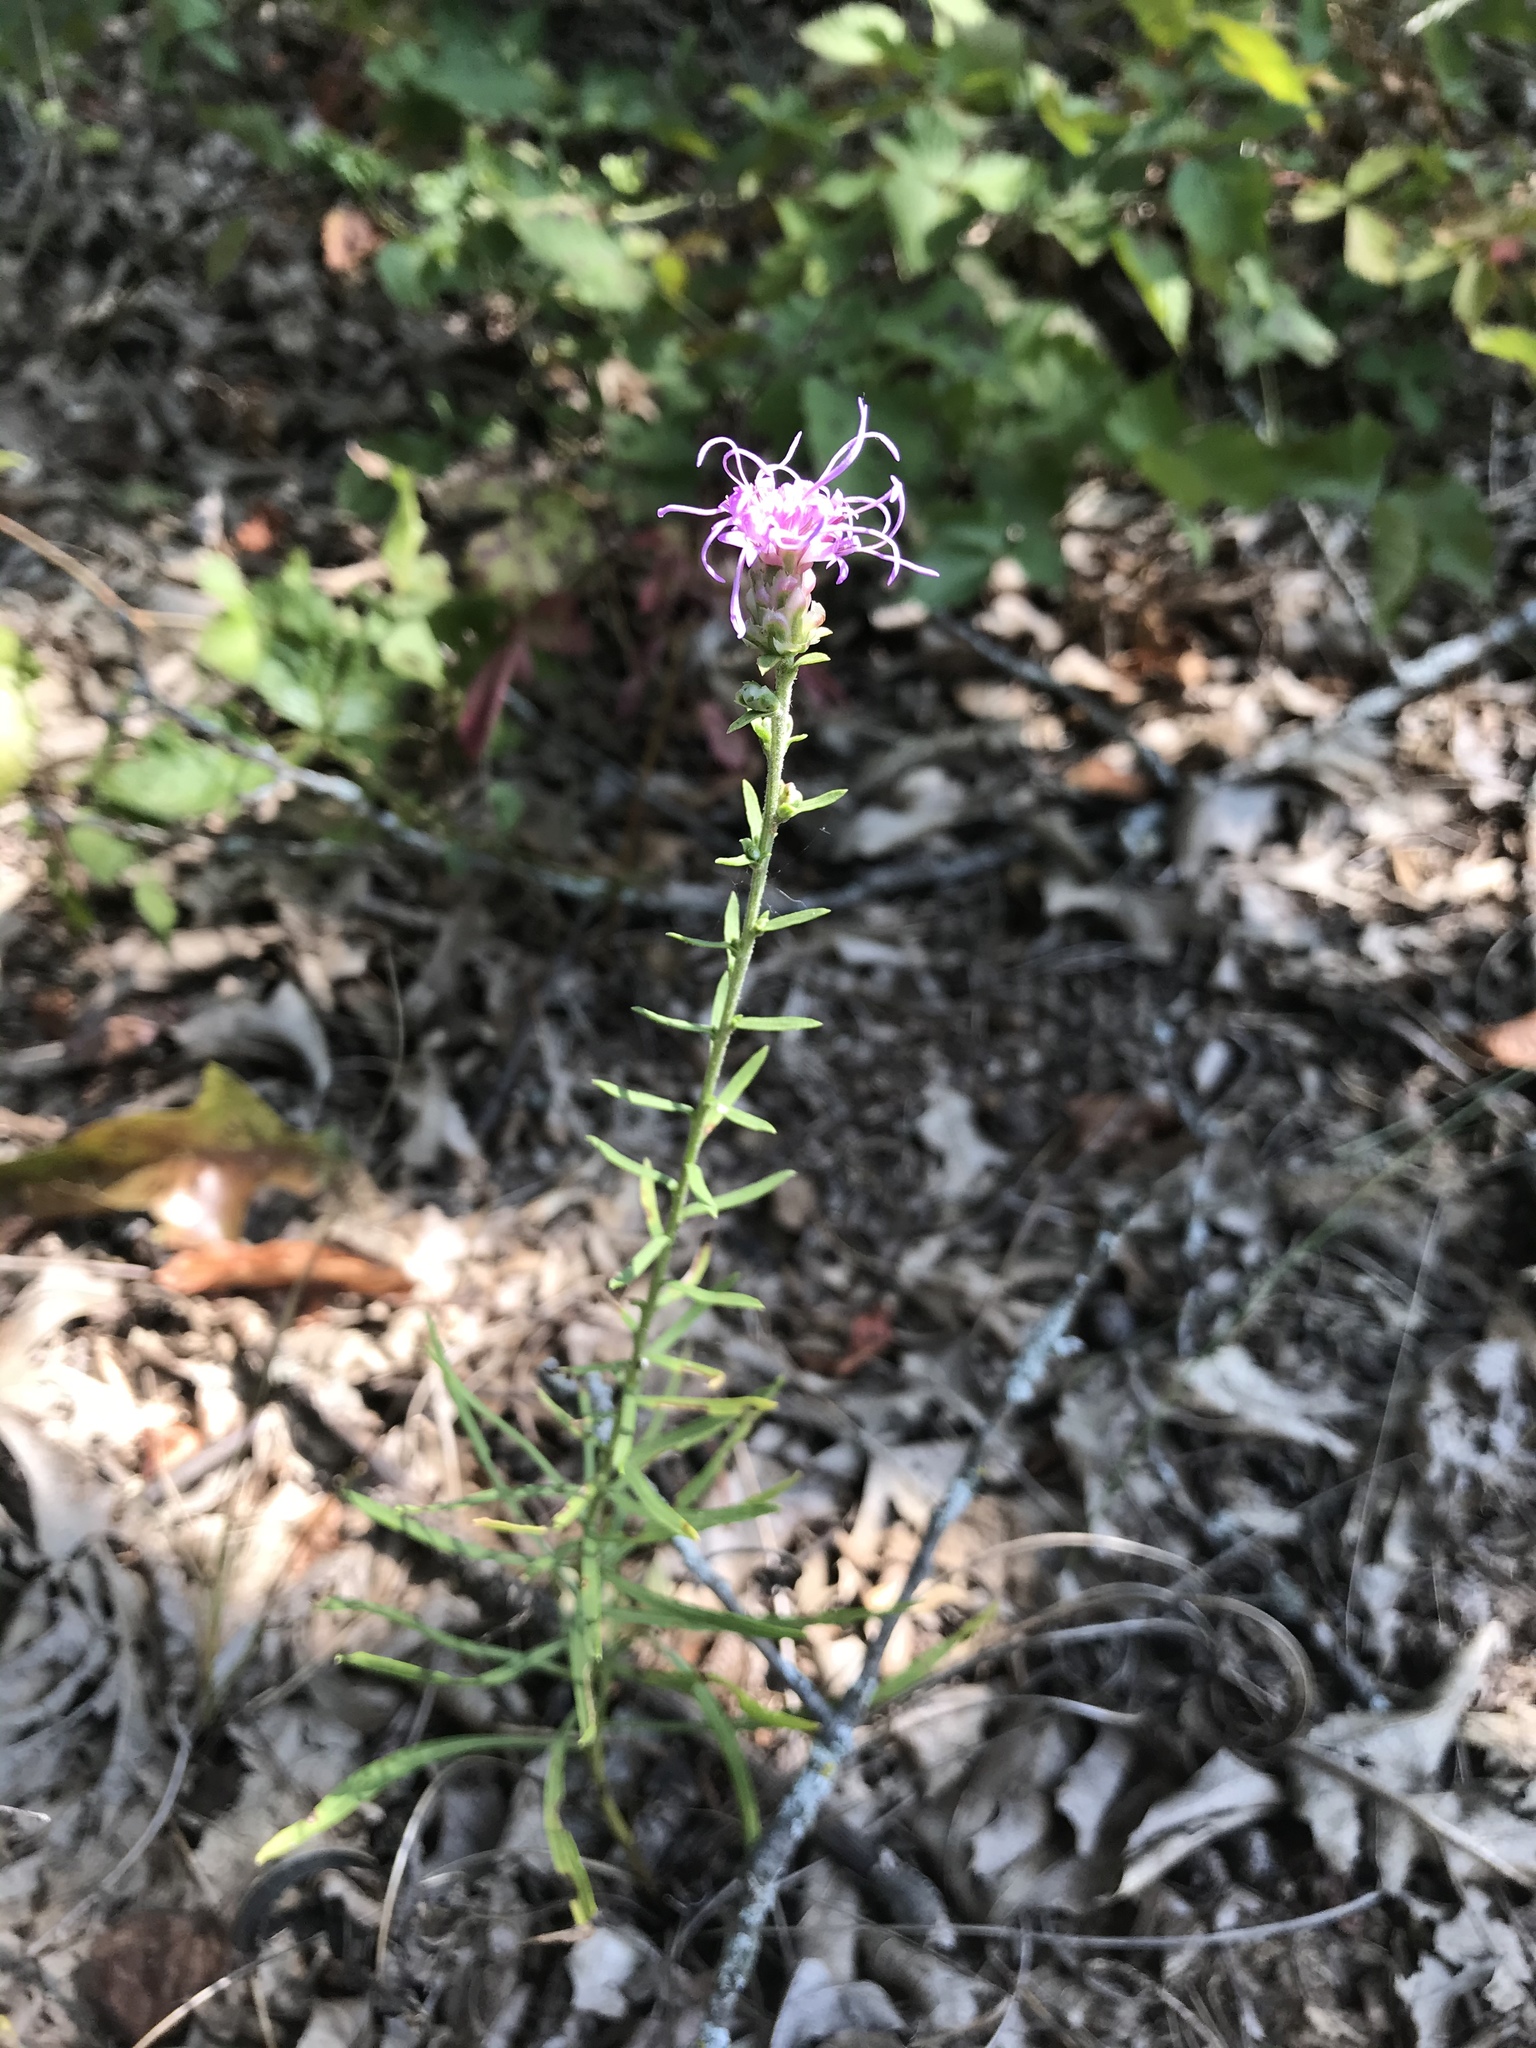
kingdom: Plantae
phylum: Tracheophyta
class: Magnoliopsida
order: Asterales
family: Asteraceae
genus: Liatris
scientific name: Liatris aspera
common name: Lacerate blazing-star
